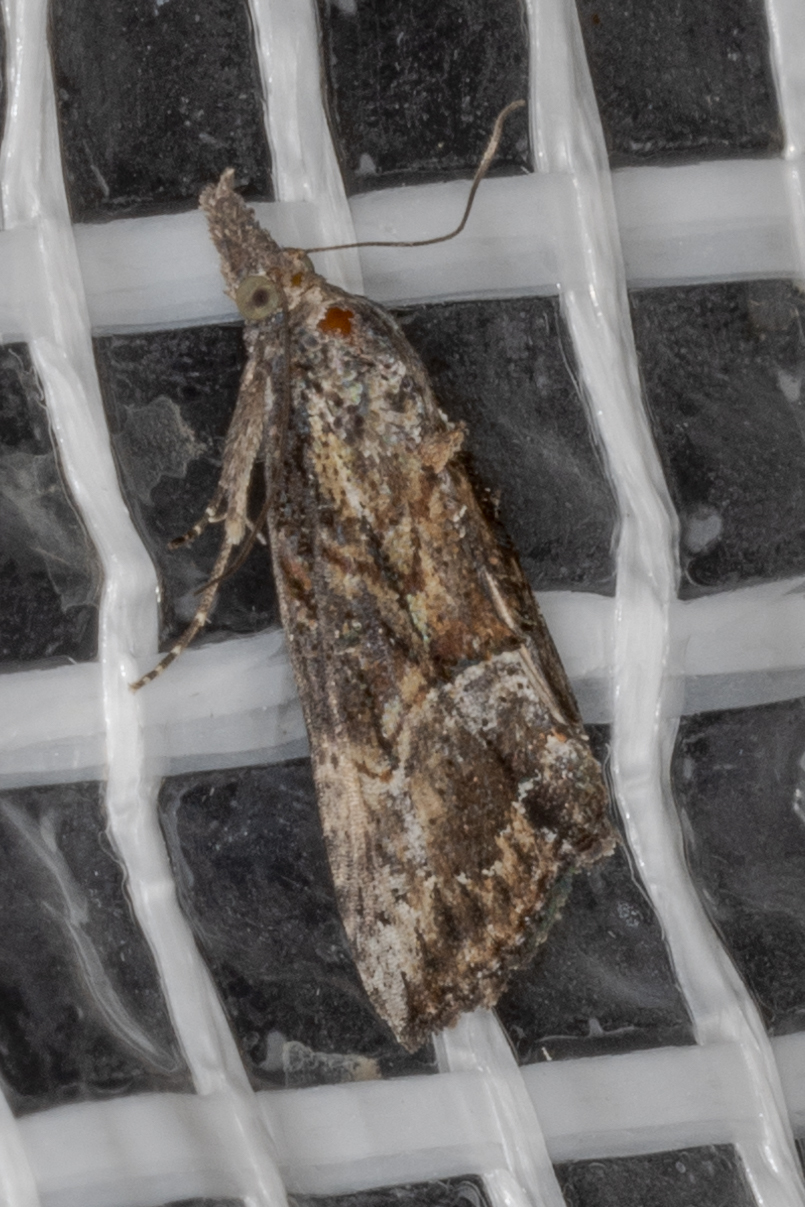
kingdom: Animalia
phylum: Arthropoda
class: Insecta
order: Lepidoptera
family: Erebidae
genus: Hypena
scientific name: Hypena scabra
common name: Green cloverworm
